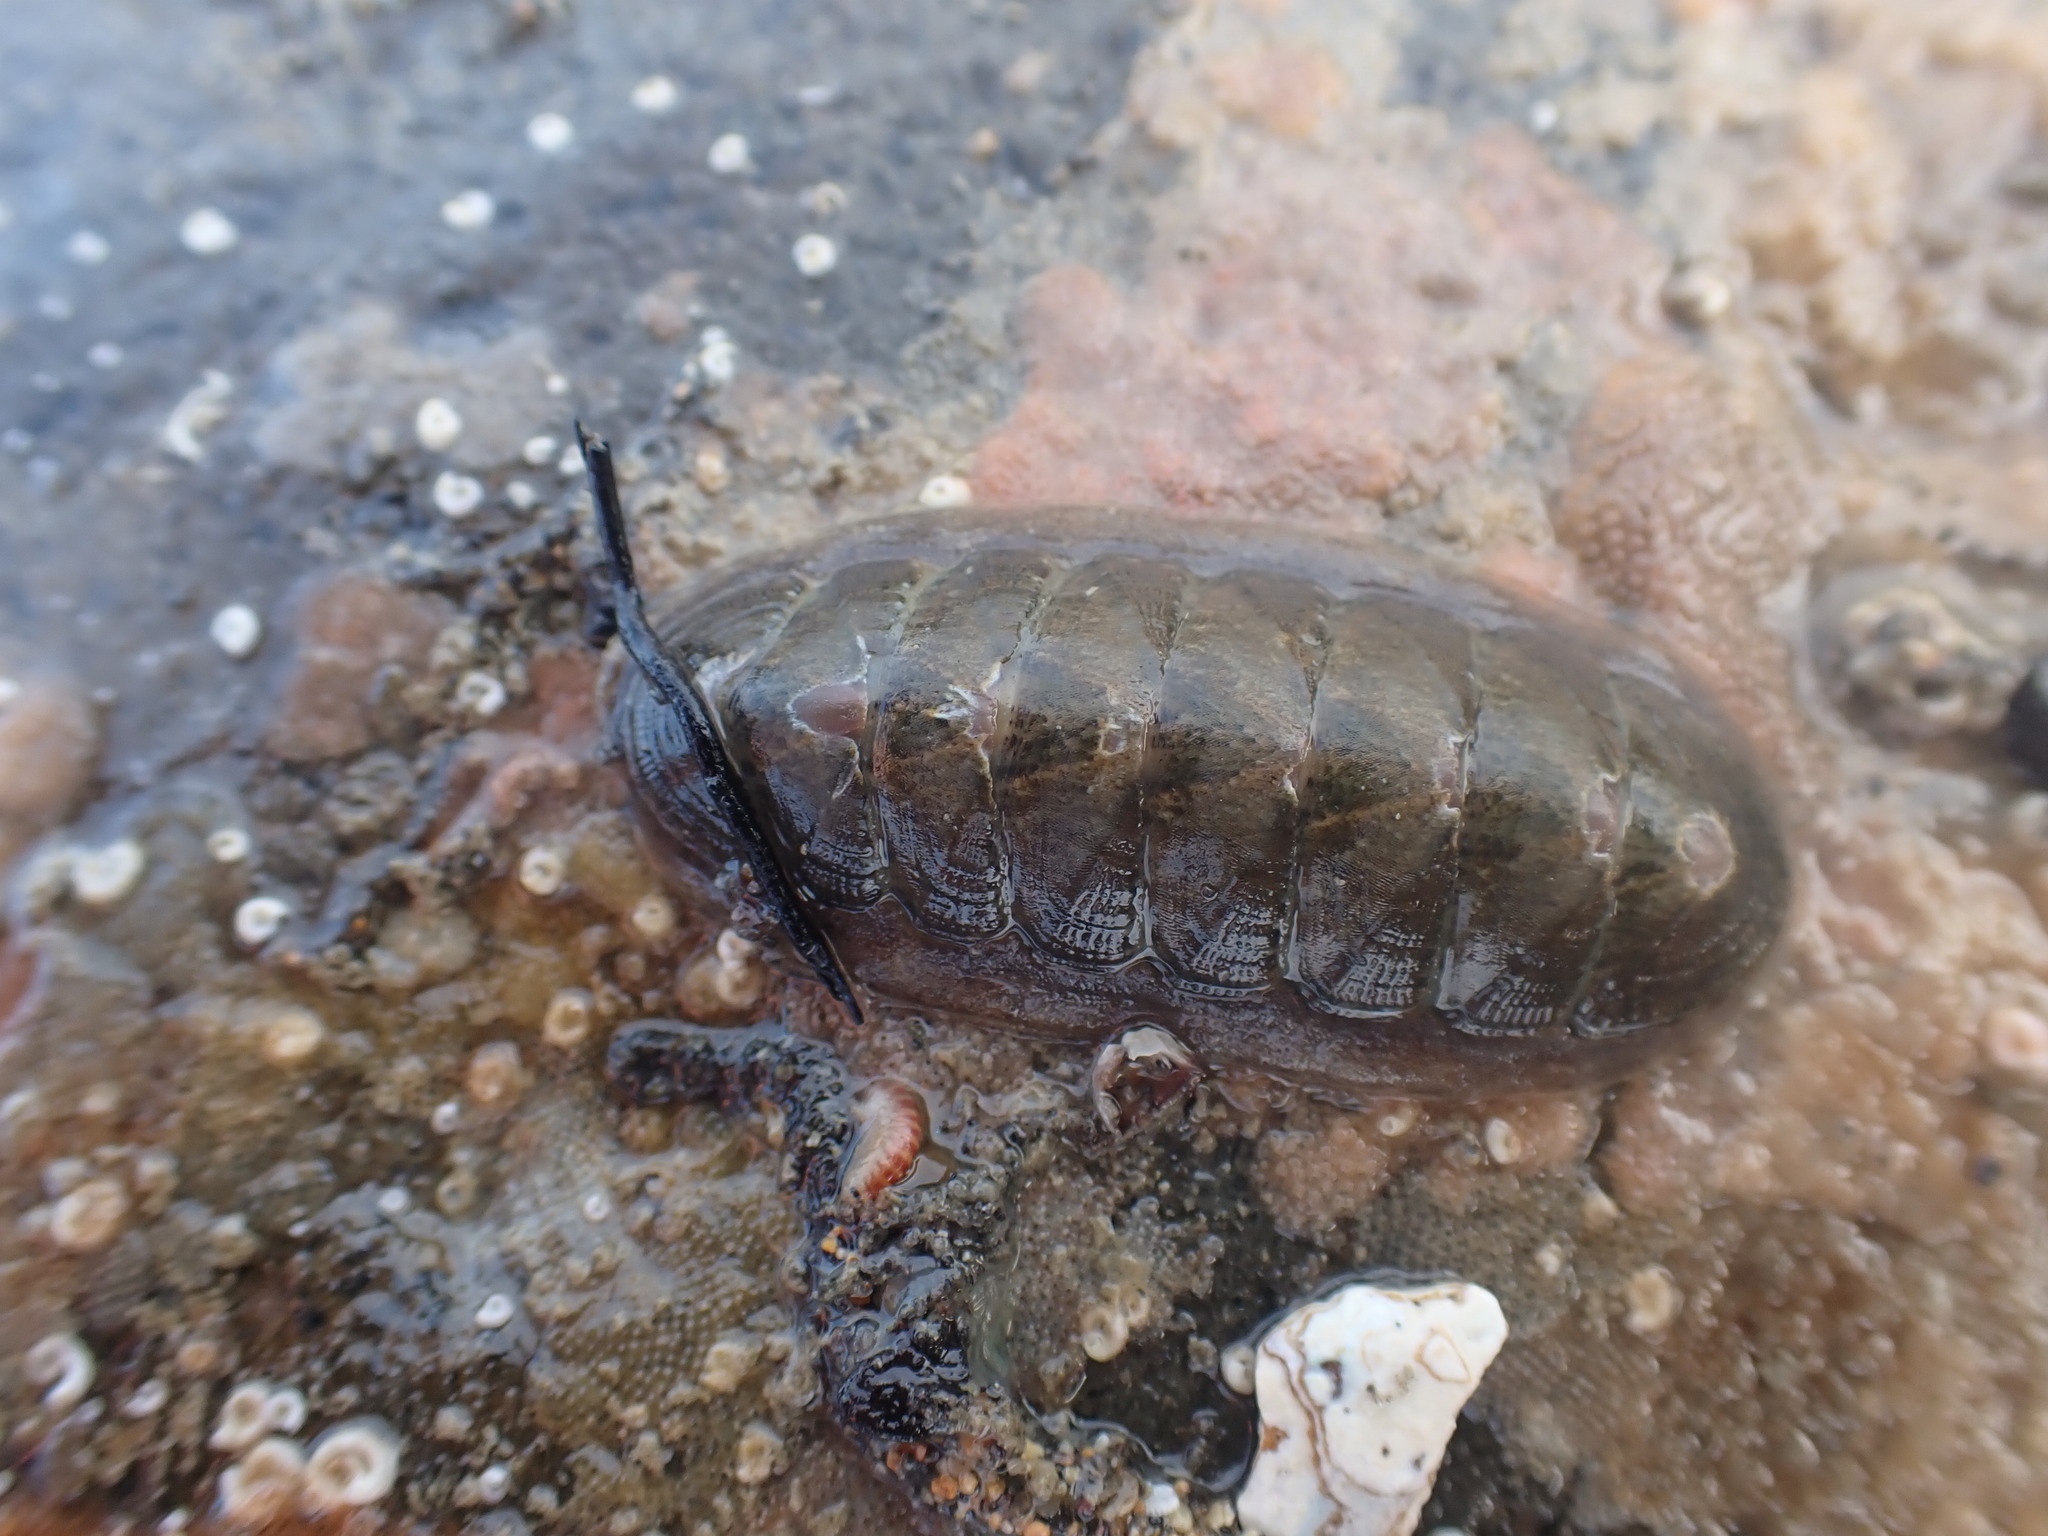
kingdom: Animalia
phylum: Mollusca
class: Polyplacophora
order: Chitonida
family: Ischnochitonidae
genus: Ischnochiton
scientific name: Ischnochiton maorianus
